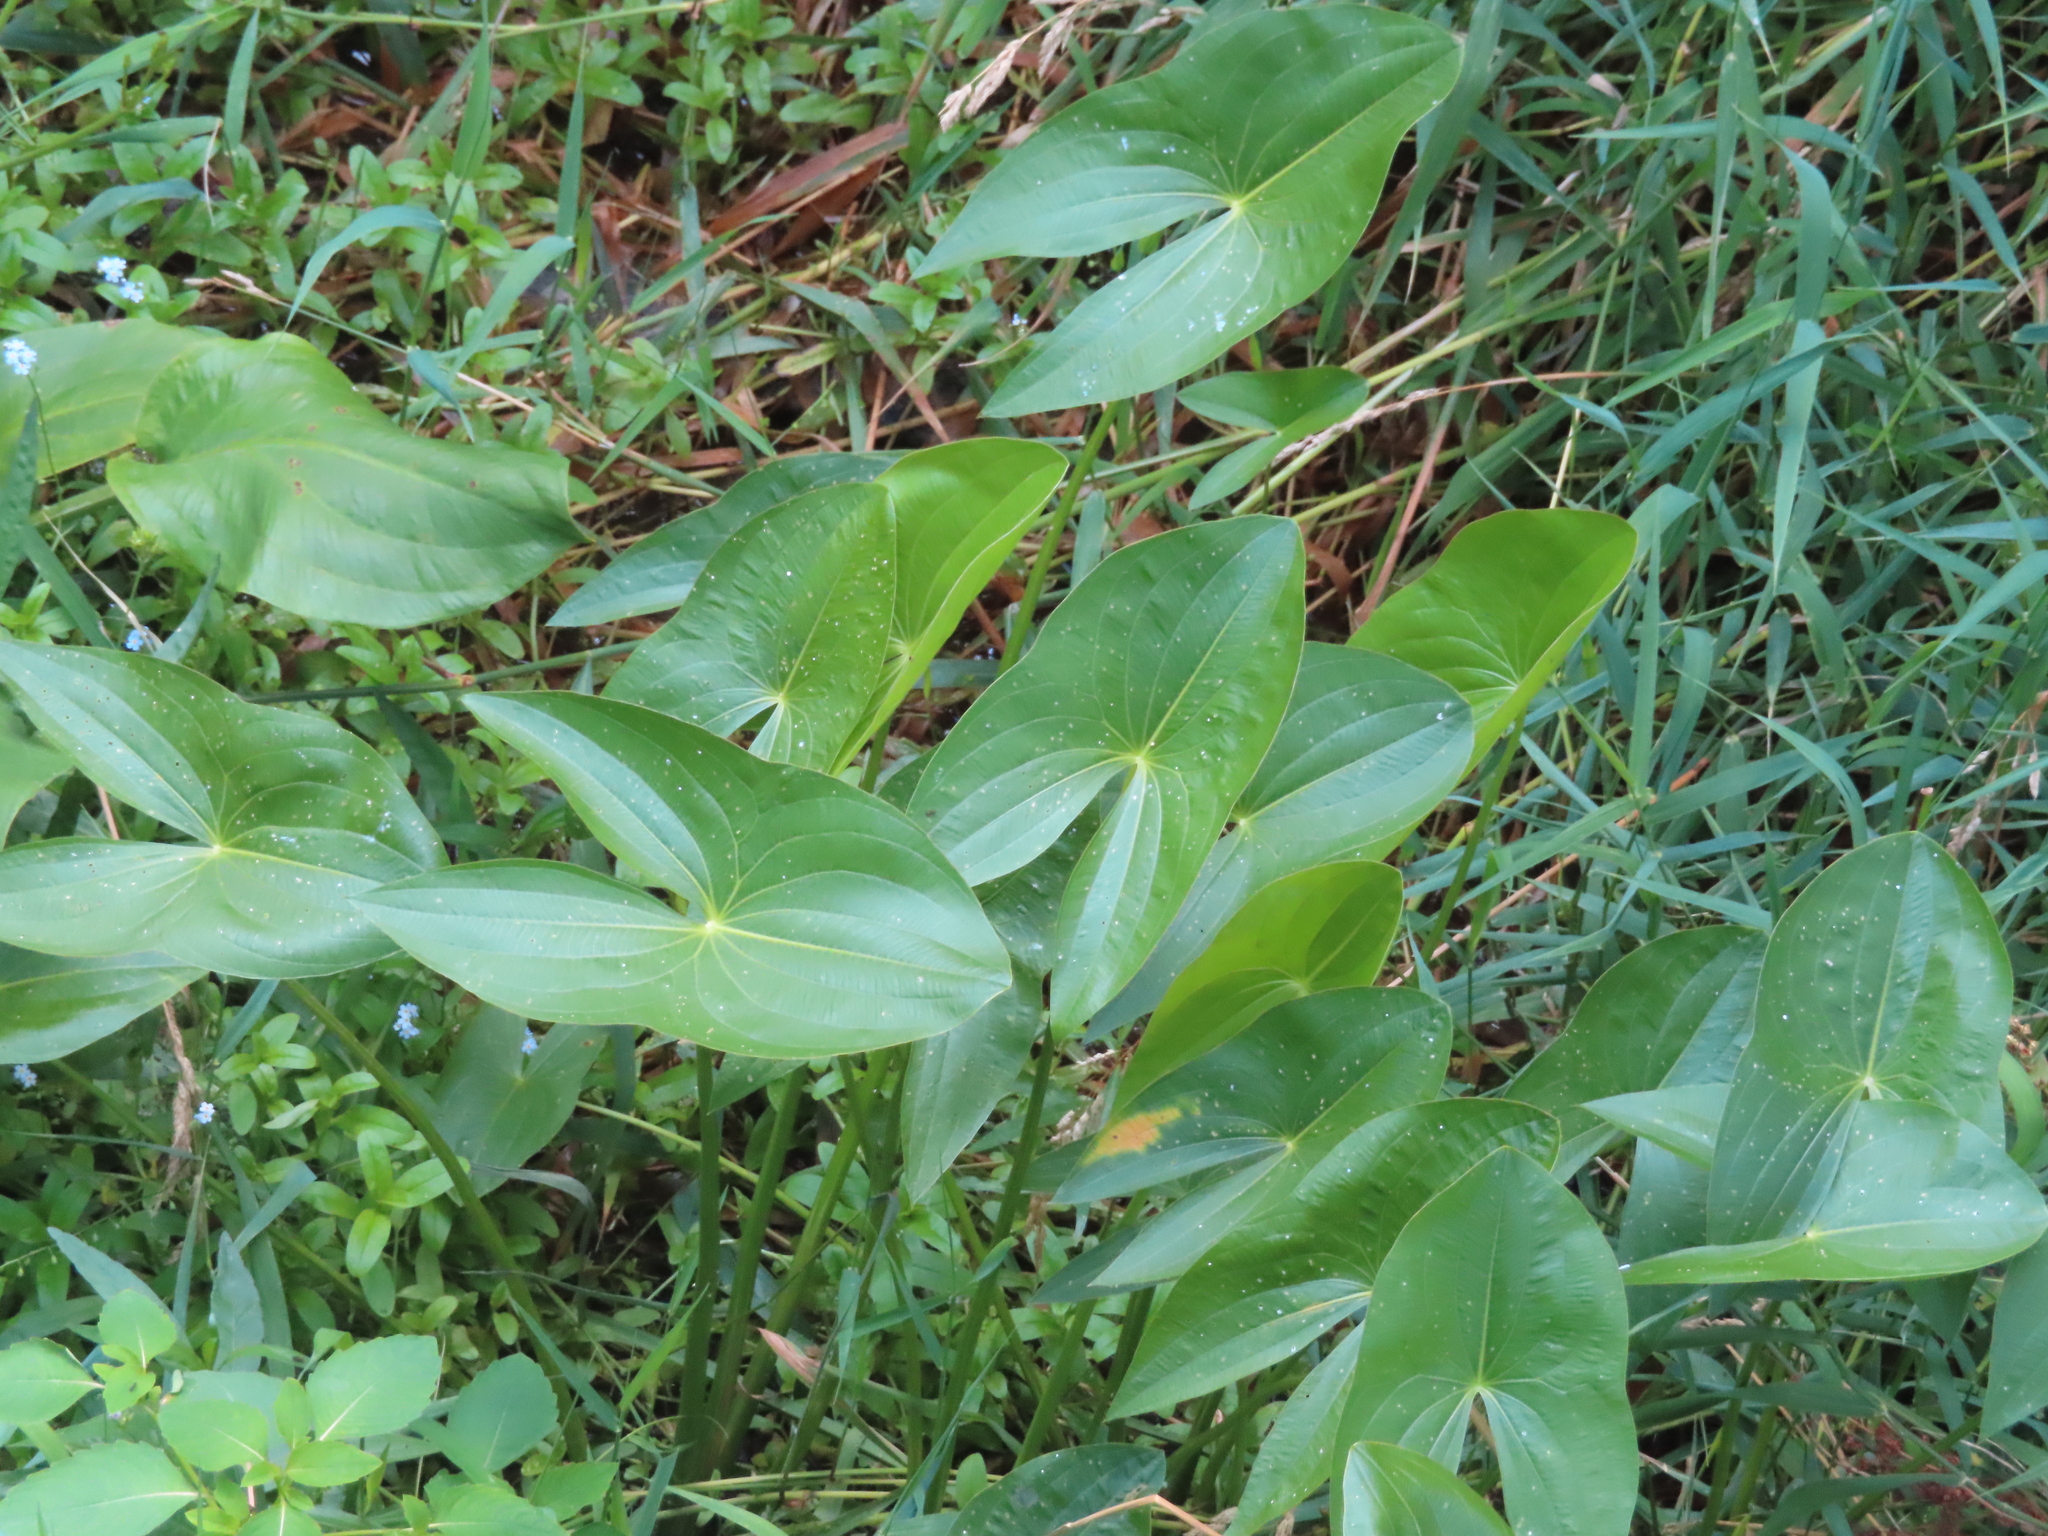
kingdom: Plantae
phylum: Tracheophyta
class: Liliopsida
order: Alismatales
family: Alismataceae
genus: Sagittaria
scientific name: Sagittaria
